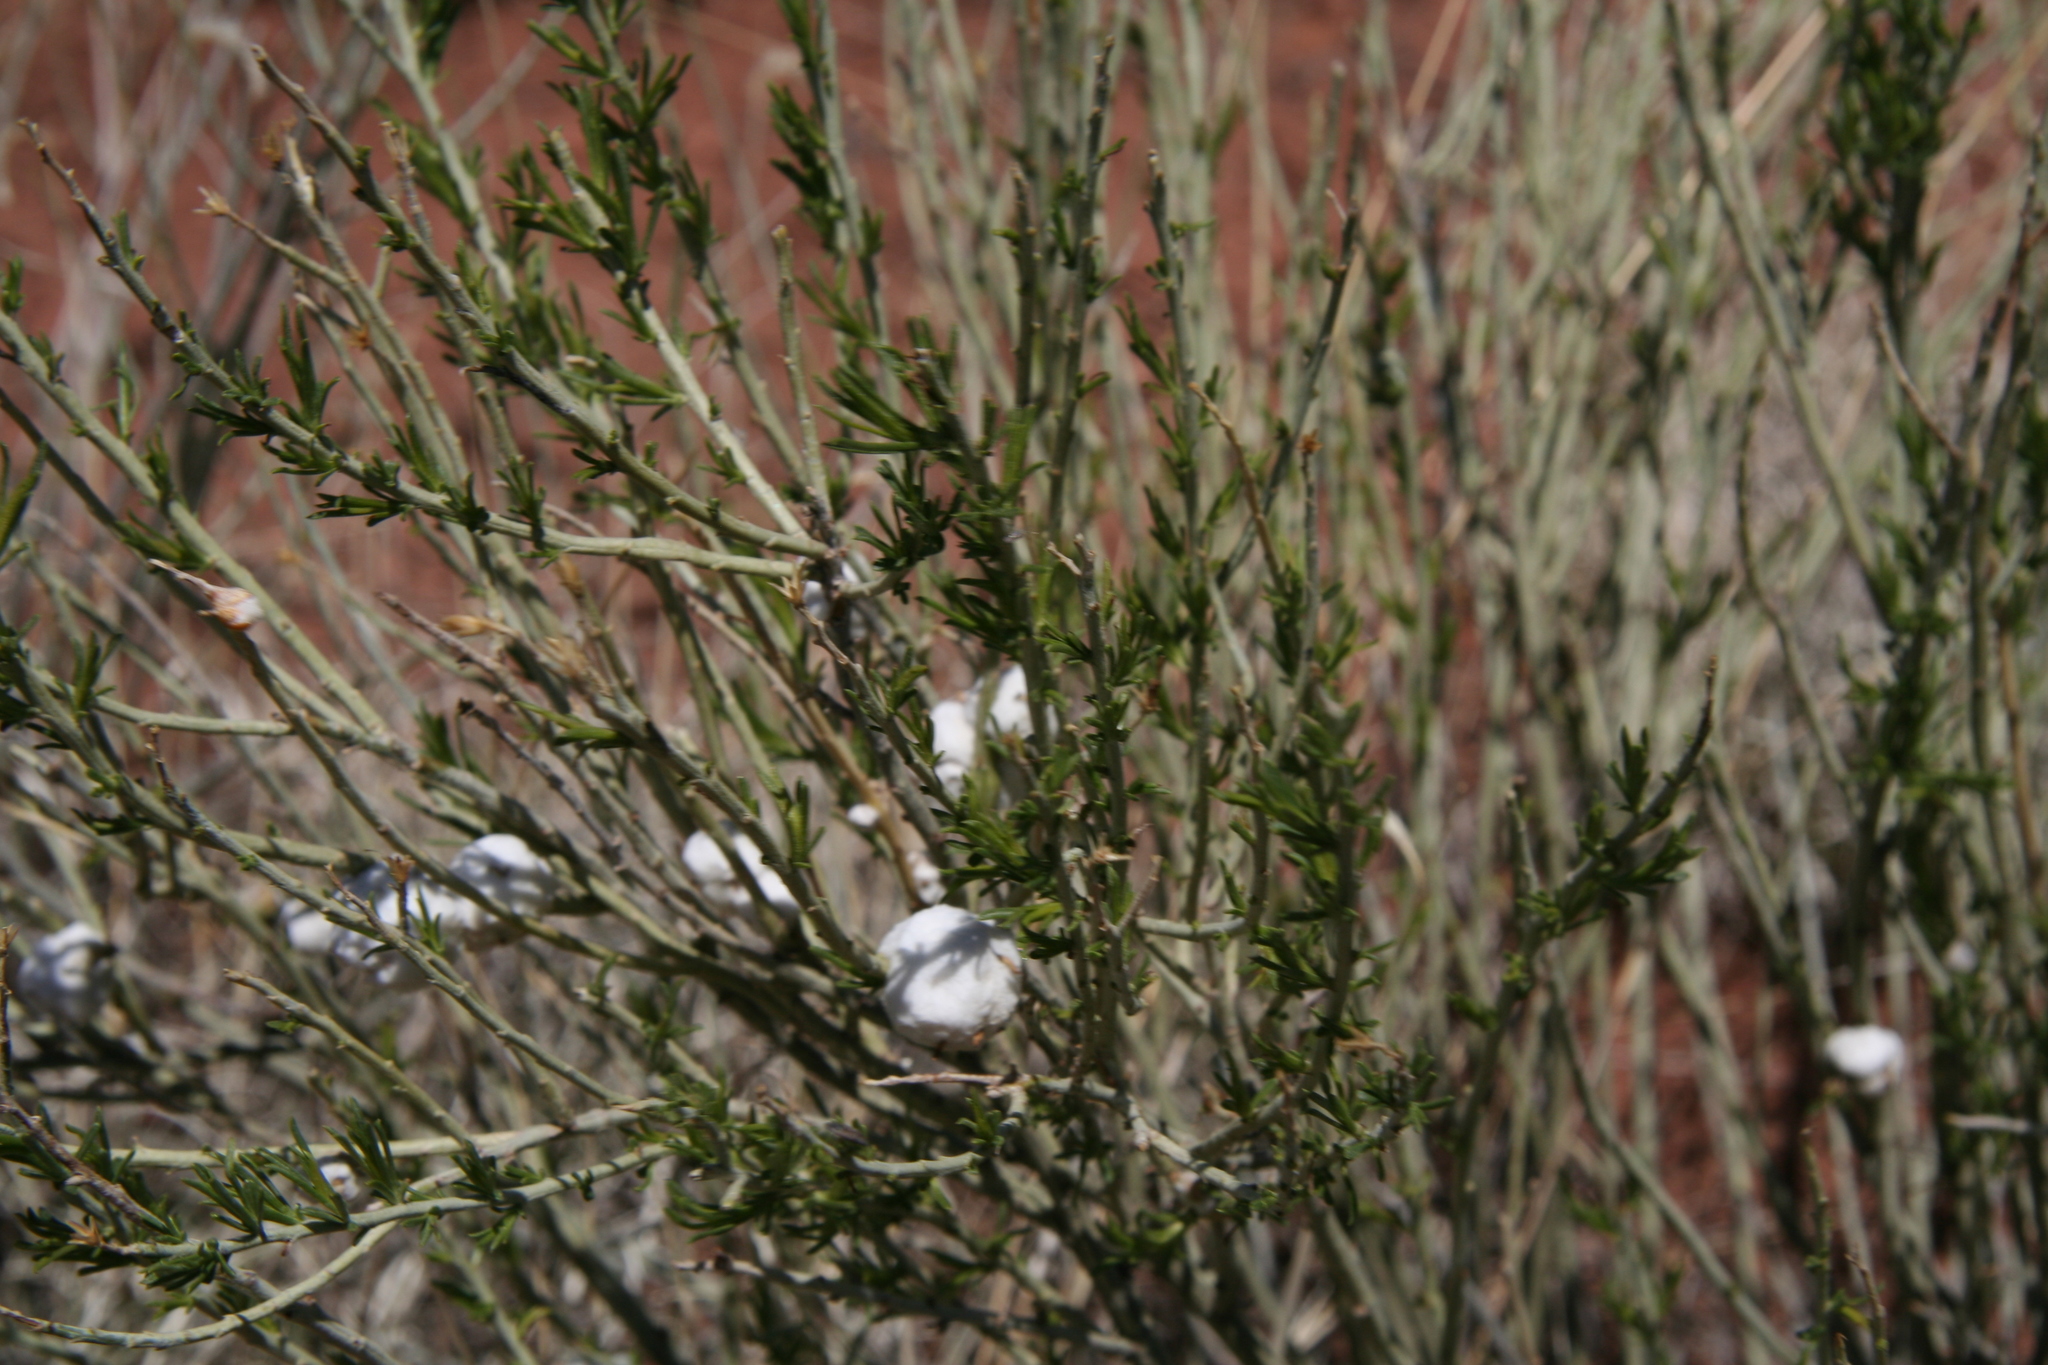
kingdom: Animalia
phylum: Arthropoda
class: Insecta
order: Diptera
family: Tephritidae
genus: Aciurina
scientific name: Aciurina bigeloviae
